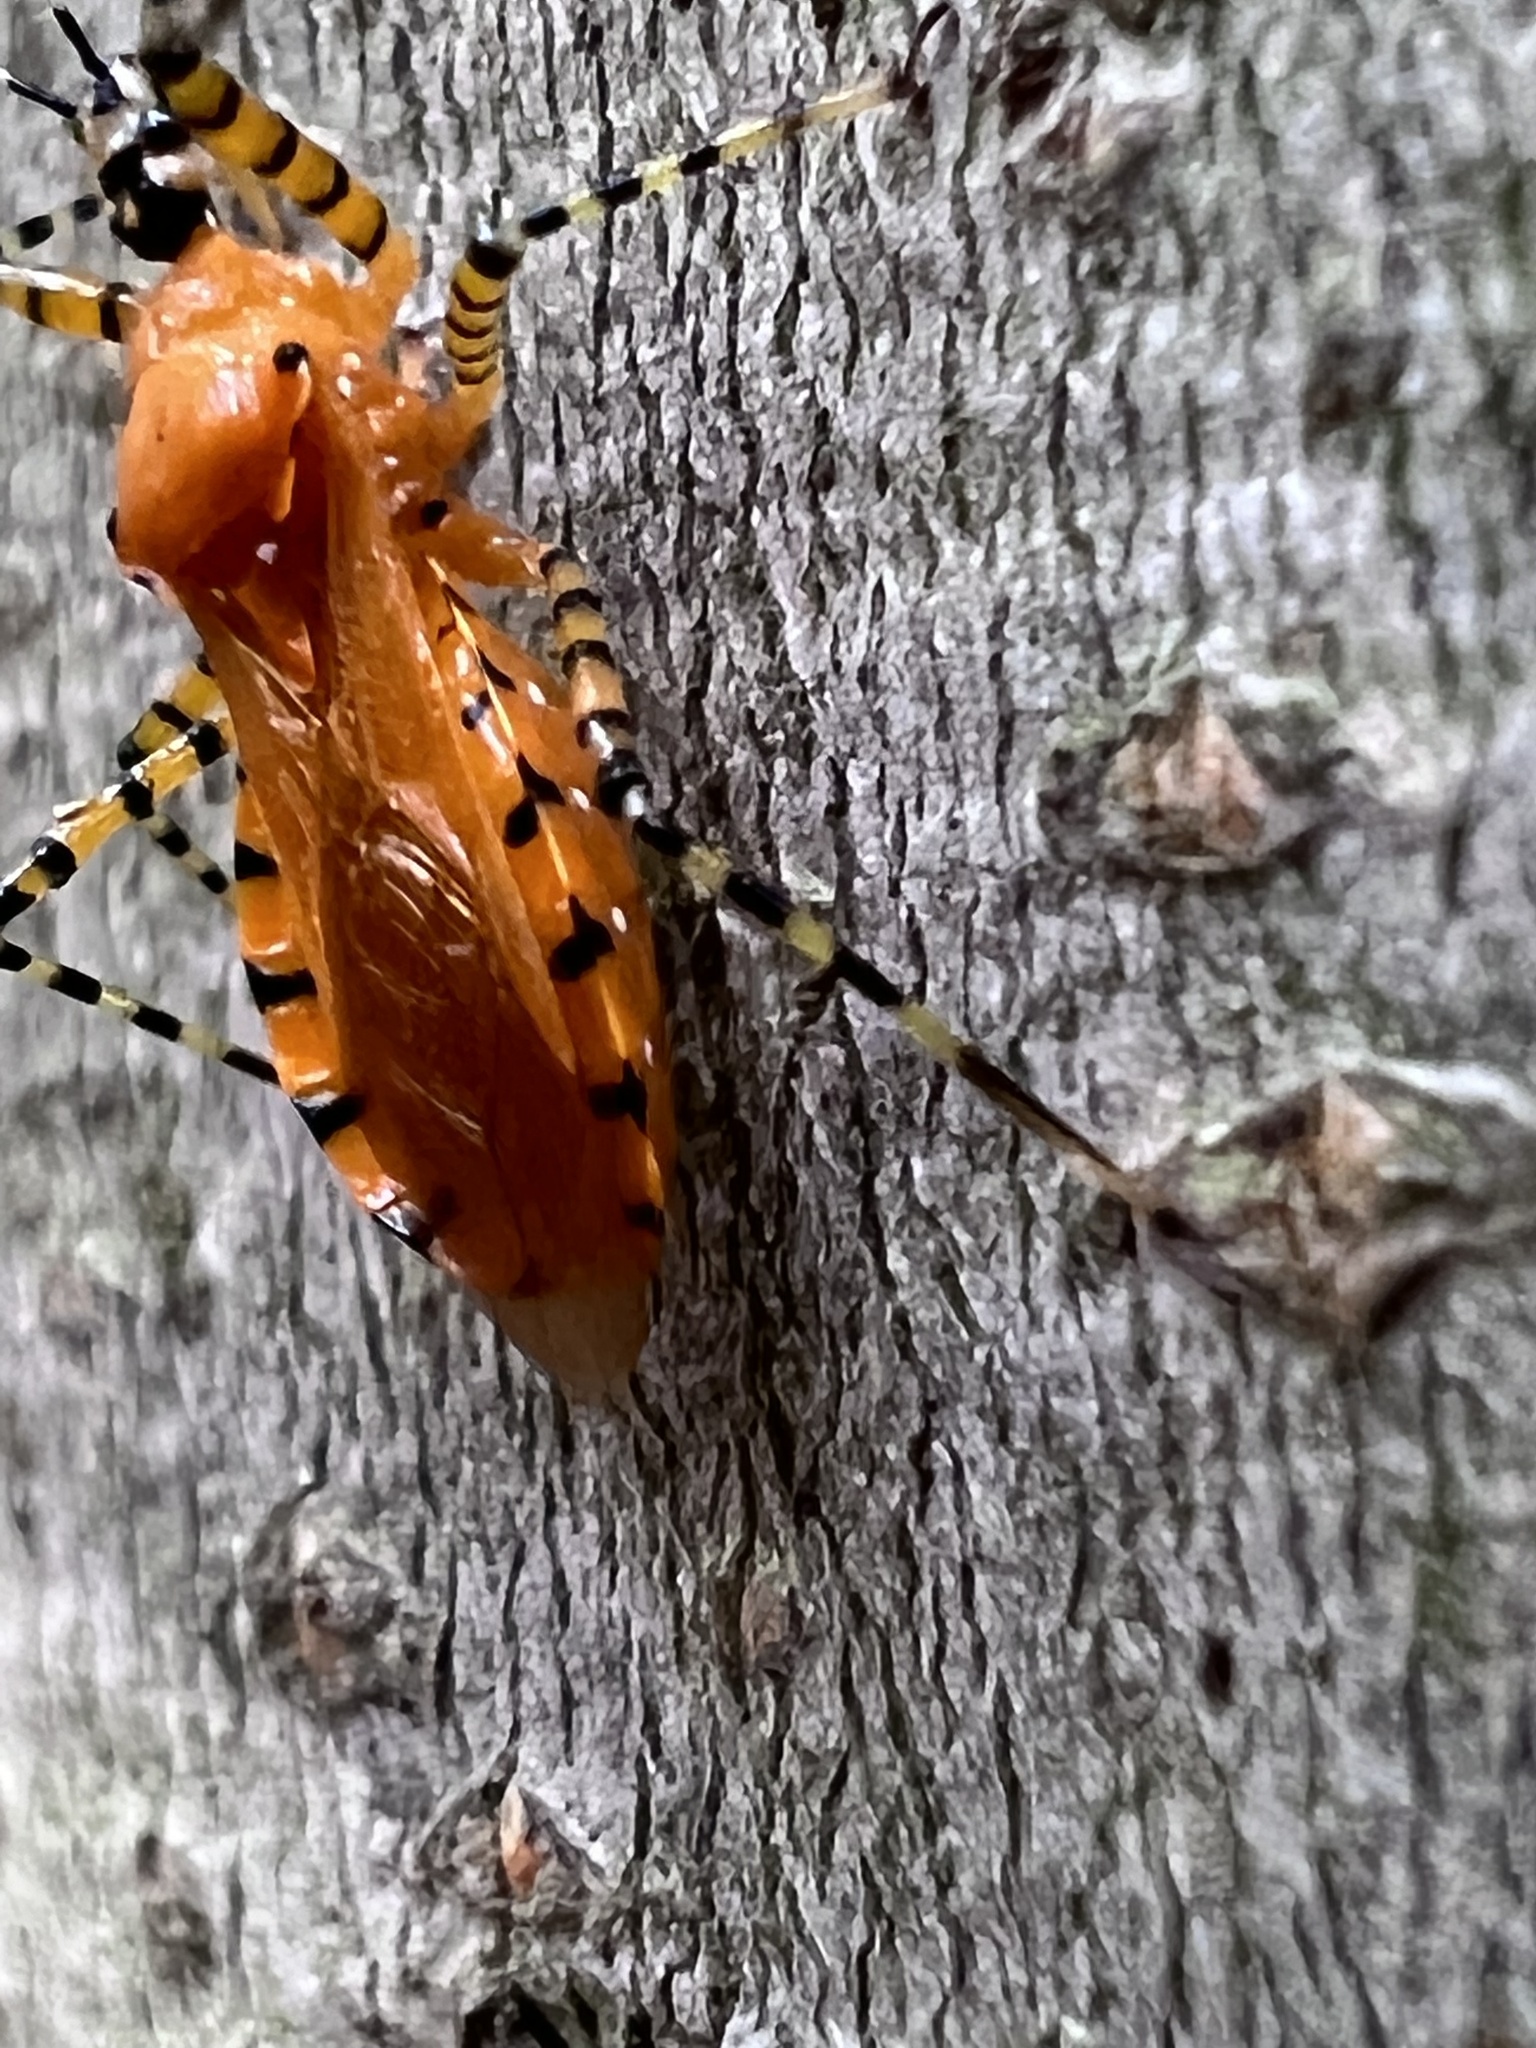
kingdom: Animalia
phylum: Arthropoda
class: Insecta
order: Hemiptera
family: Reduviidae
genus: Pselliopus
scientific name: Pselliopus barberi
